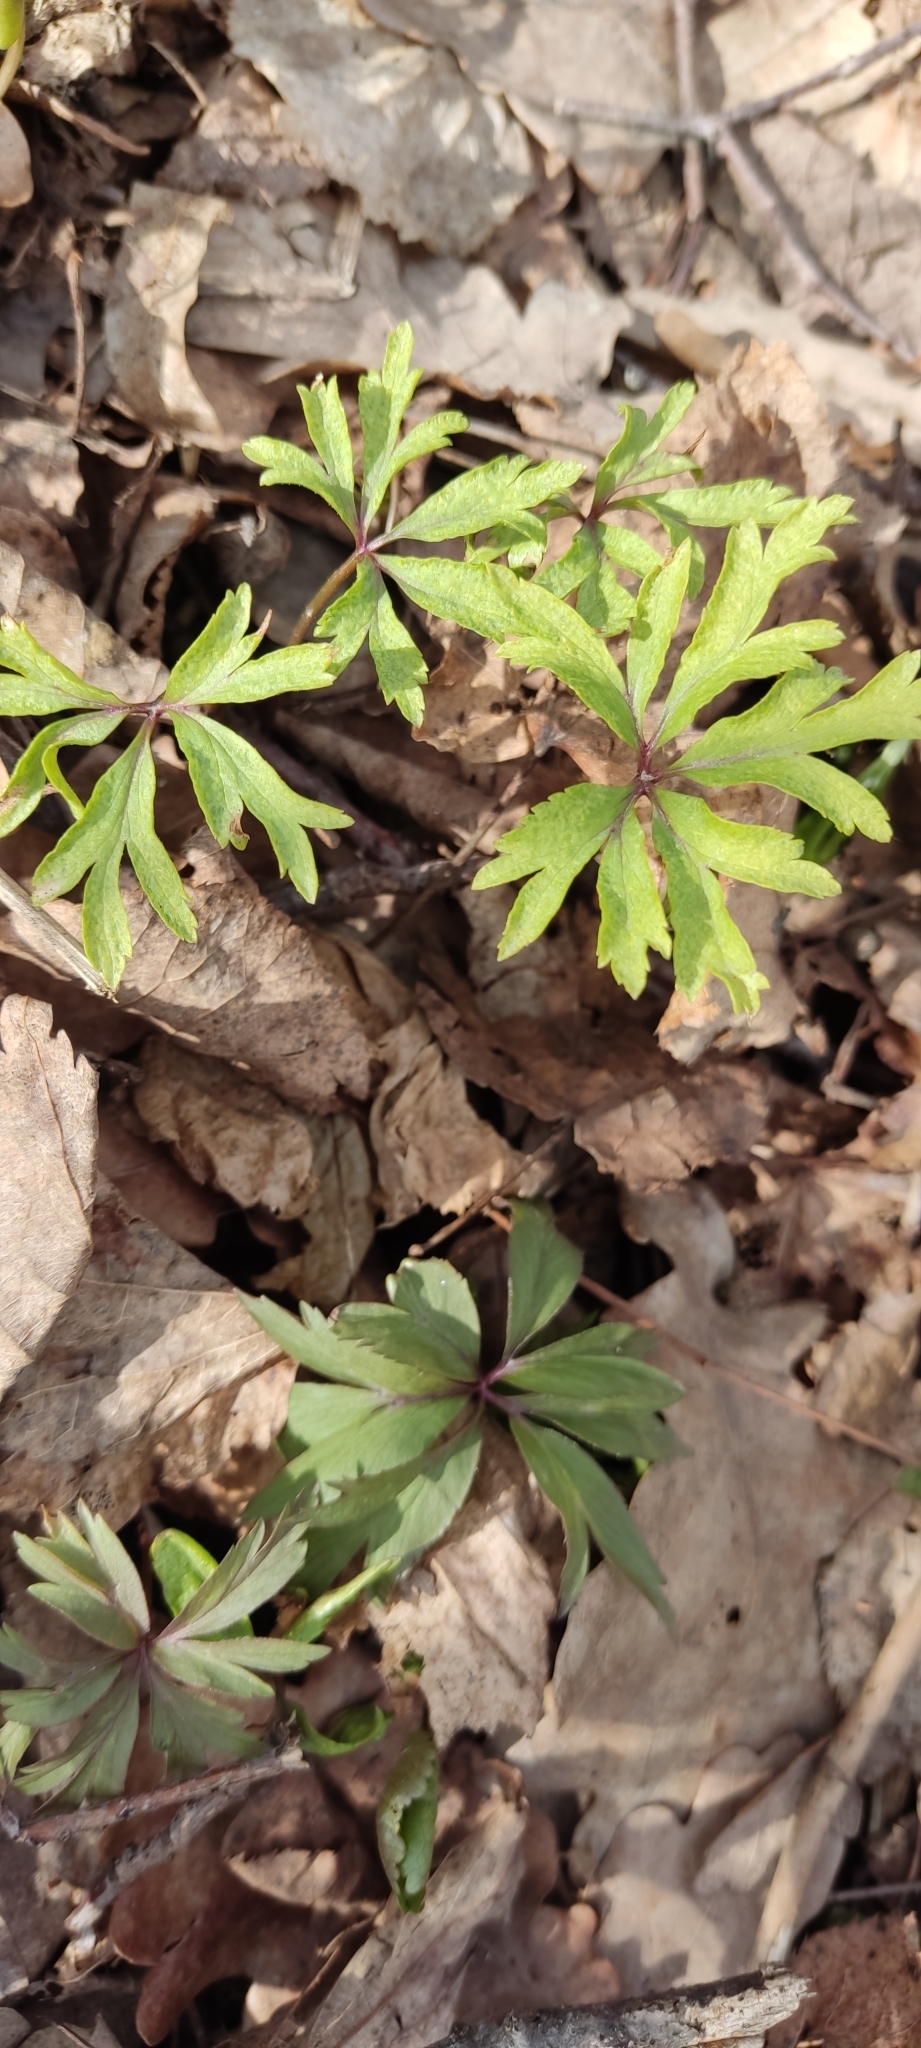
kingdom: Plantae
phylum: Tracheophyta
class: Magnoliopsida
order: Ranunculales
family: Ranunculaceae
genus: Anemone
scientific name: Anemone ranunculoides
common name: Yellow anemone
